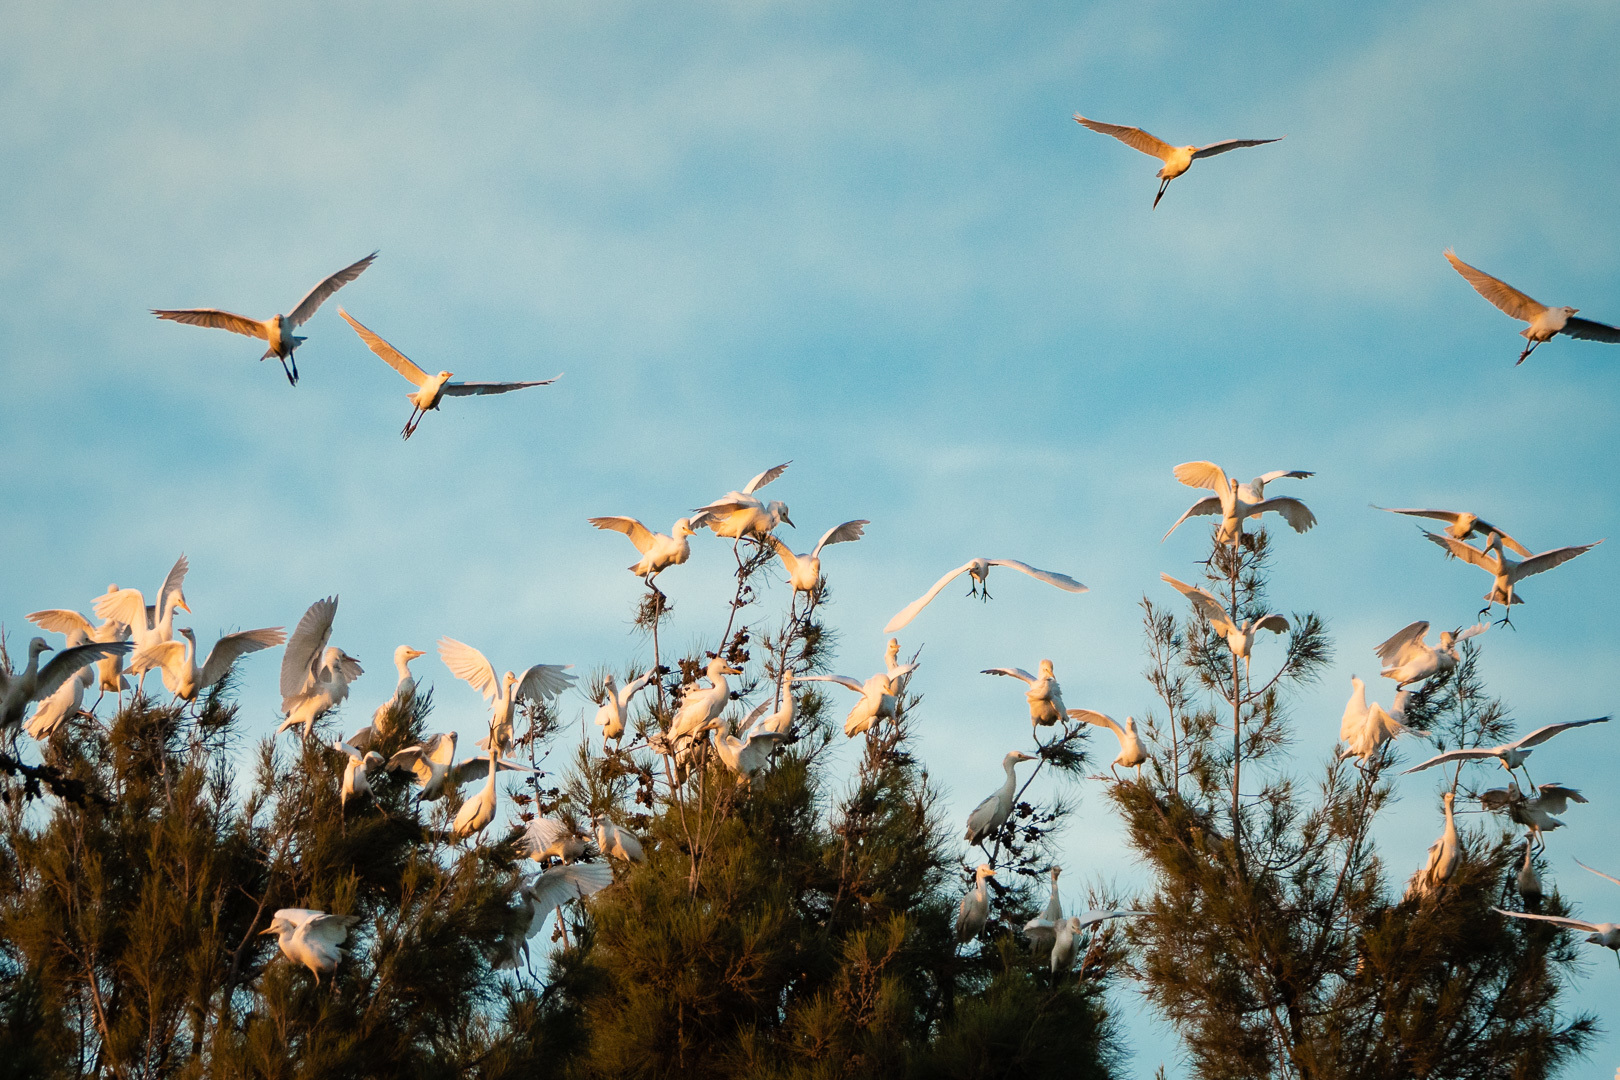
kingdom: Animalia
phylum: Chordata
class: Aves
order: Pelecaniformes
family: Ardeidae
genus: Bubulcus
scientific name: Bubulcus ibis
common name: Cattle egret
